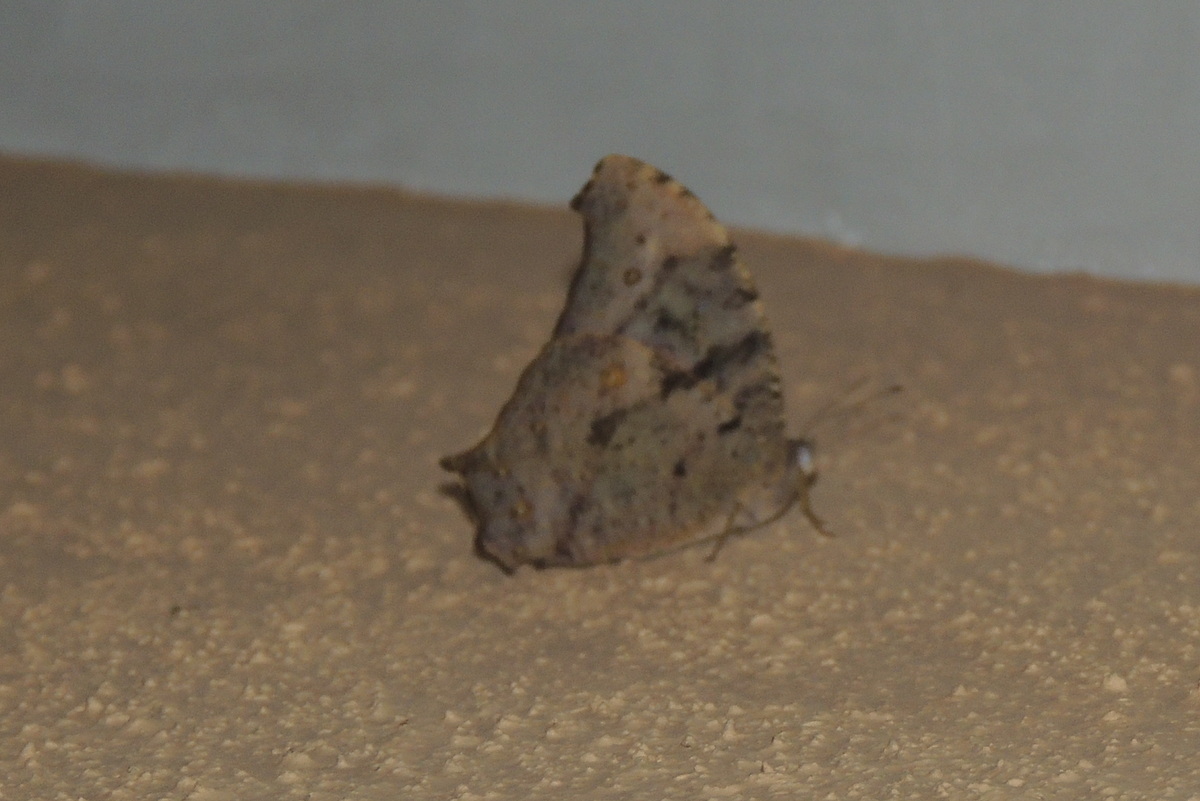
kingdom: Animalia
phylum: Arthropoda
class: Insecta
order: Lepidoptera
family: Nymphalidae
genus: Melanitis
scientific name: Melanitis leda
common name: Twilight brown
